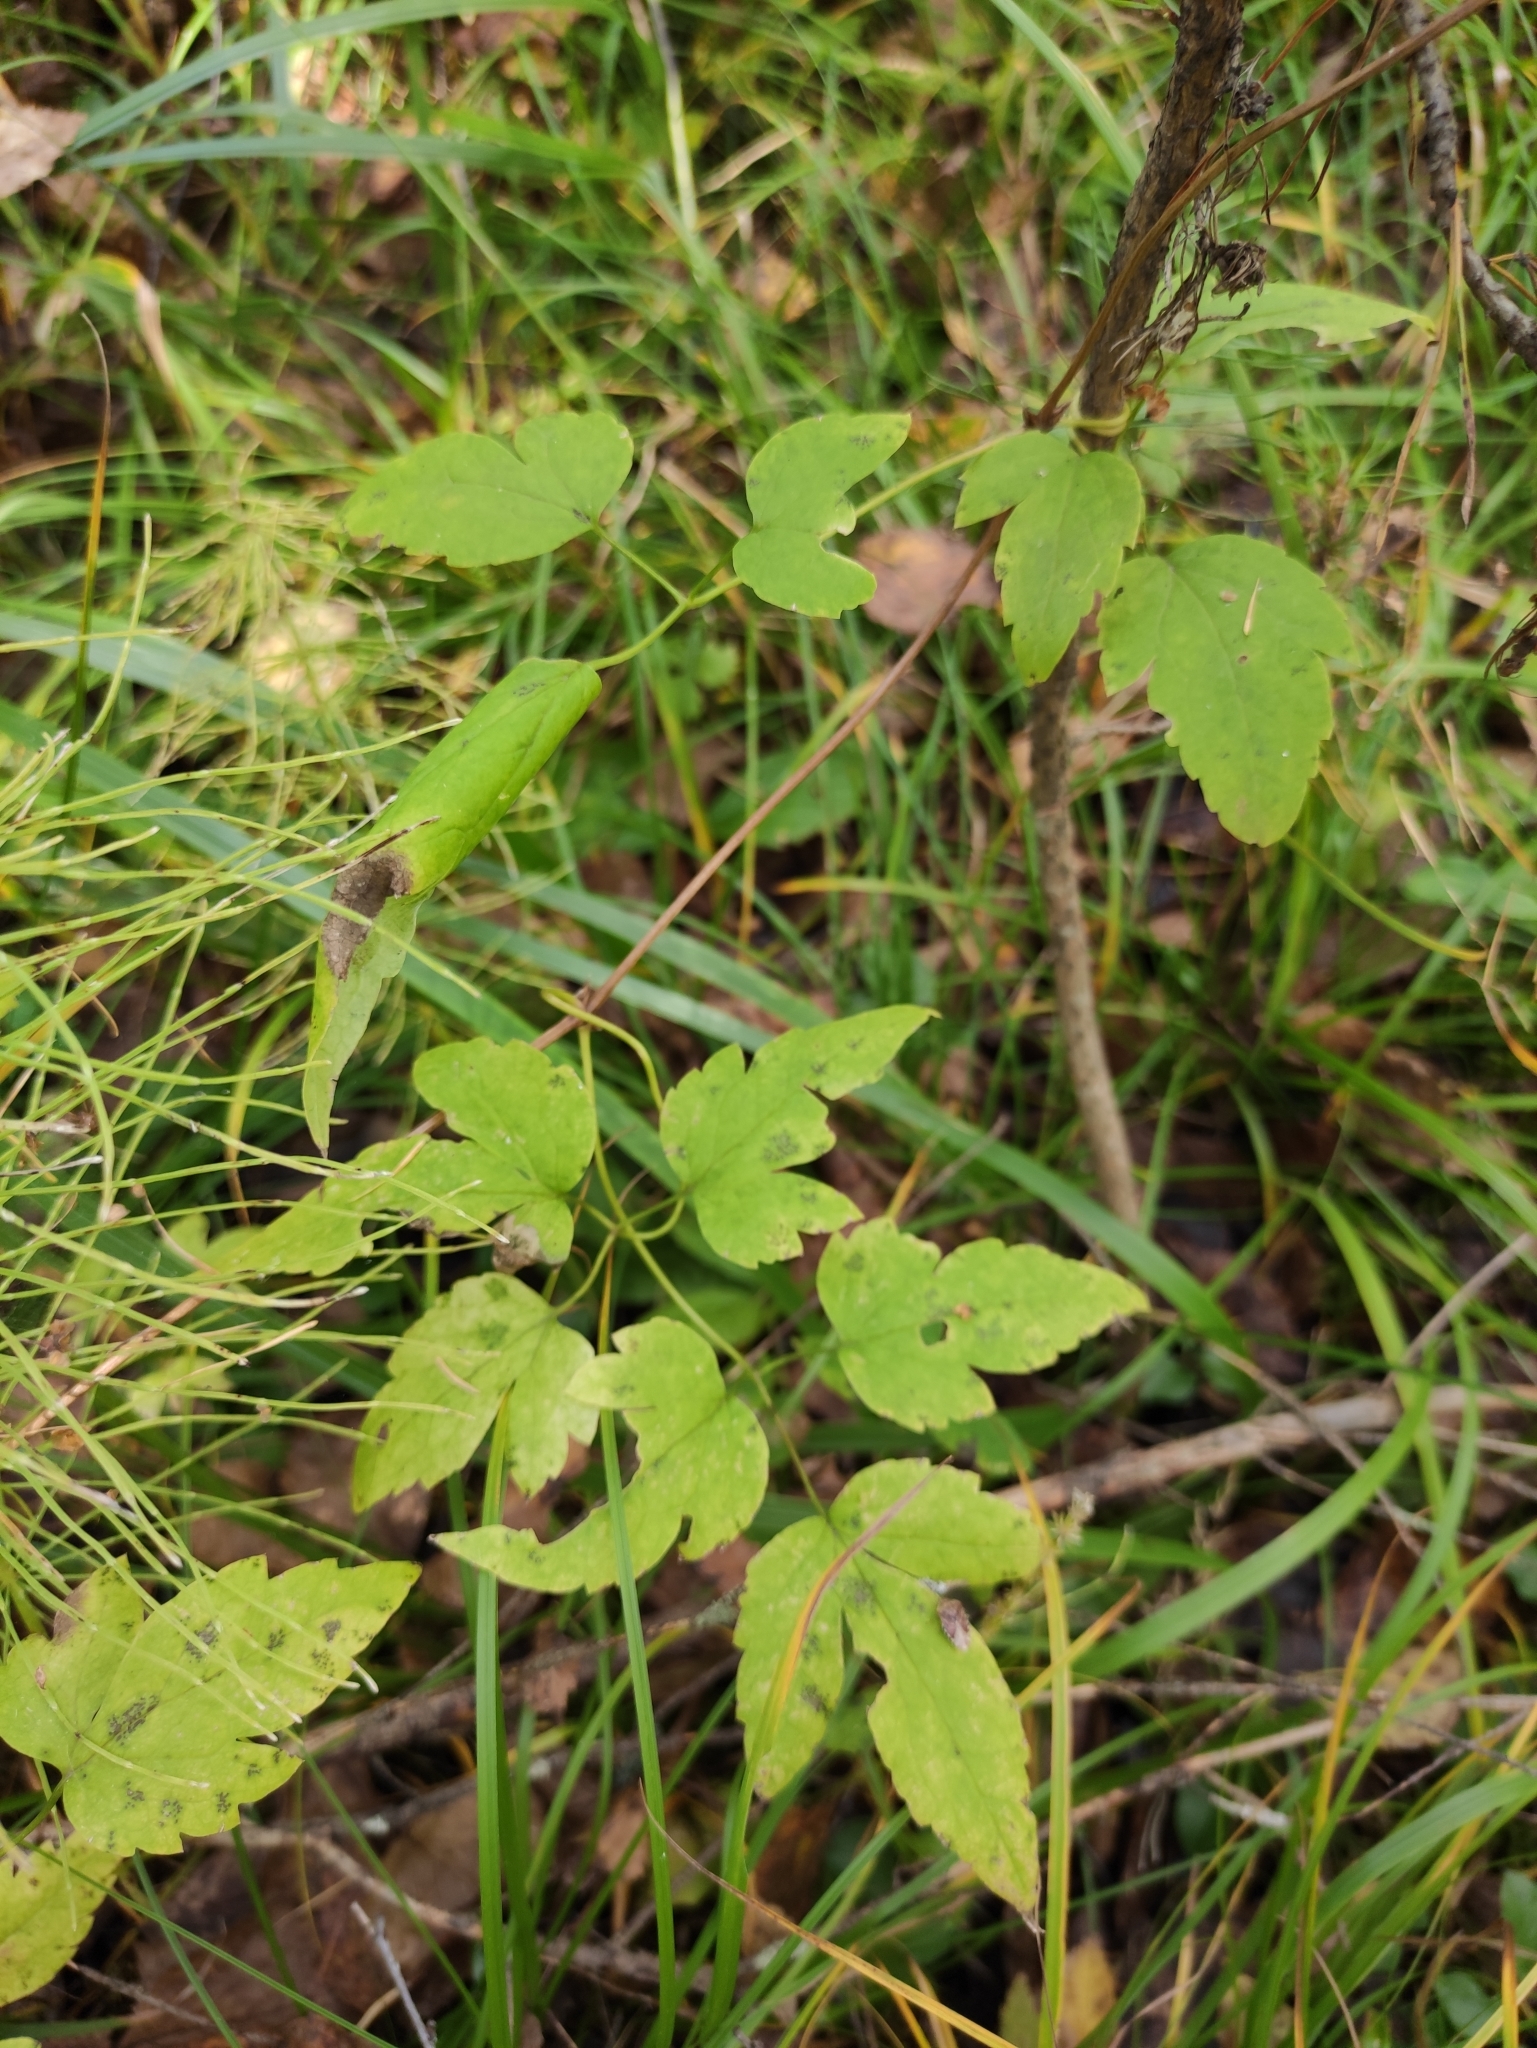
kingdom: Plantae
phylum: Tracheophyta
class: Magnoliopsida
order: Ranunculales
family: Ranunculaceae
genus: Clematis
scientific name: Clematis sibirica
